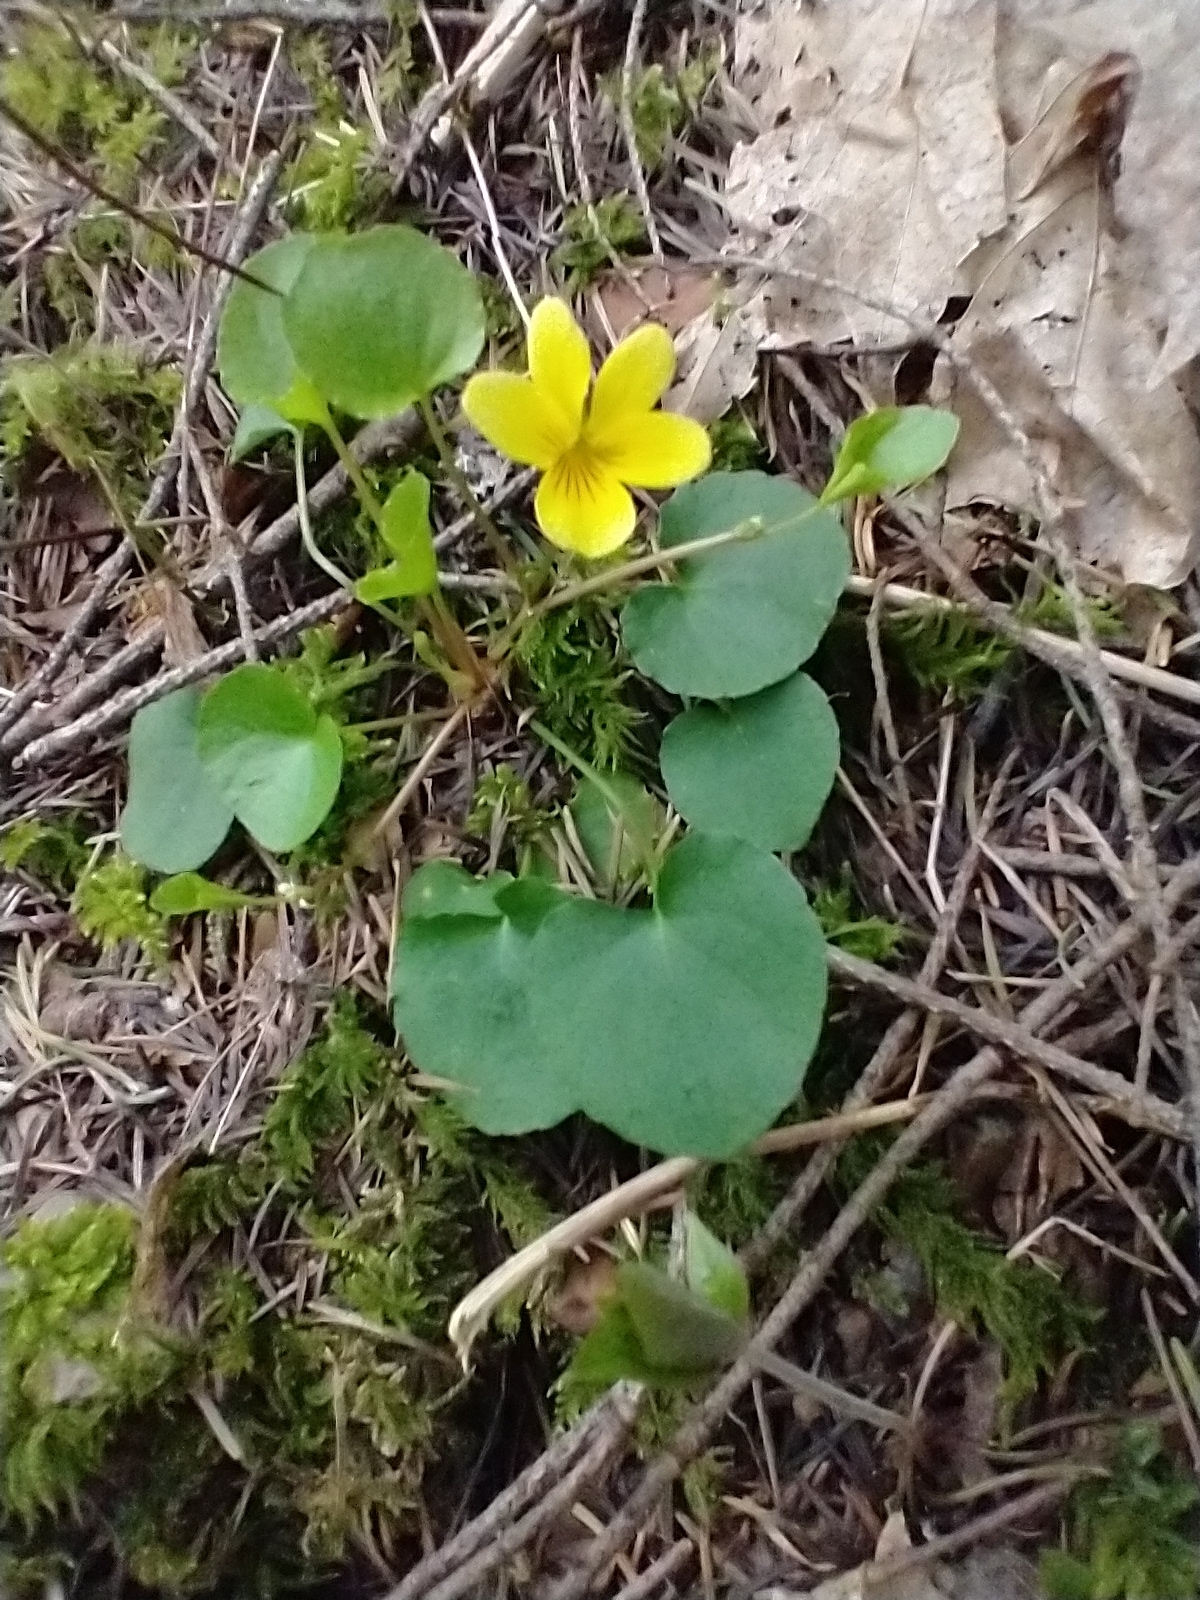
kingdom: Plantae
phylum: Tracheophyta
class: Magnoliopsida
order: Malpighiales
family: Violaceae
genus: Viola
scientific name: Viola sempervirens
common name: Evergreen violet
